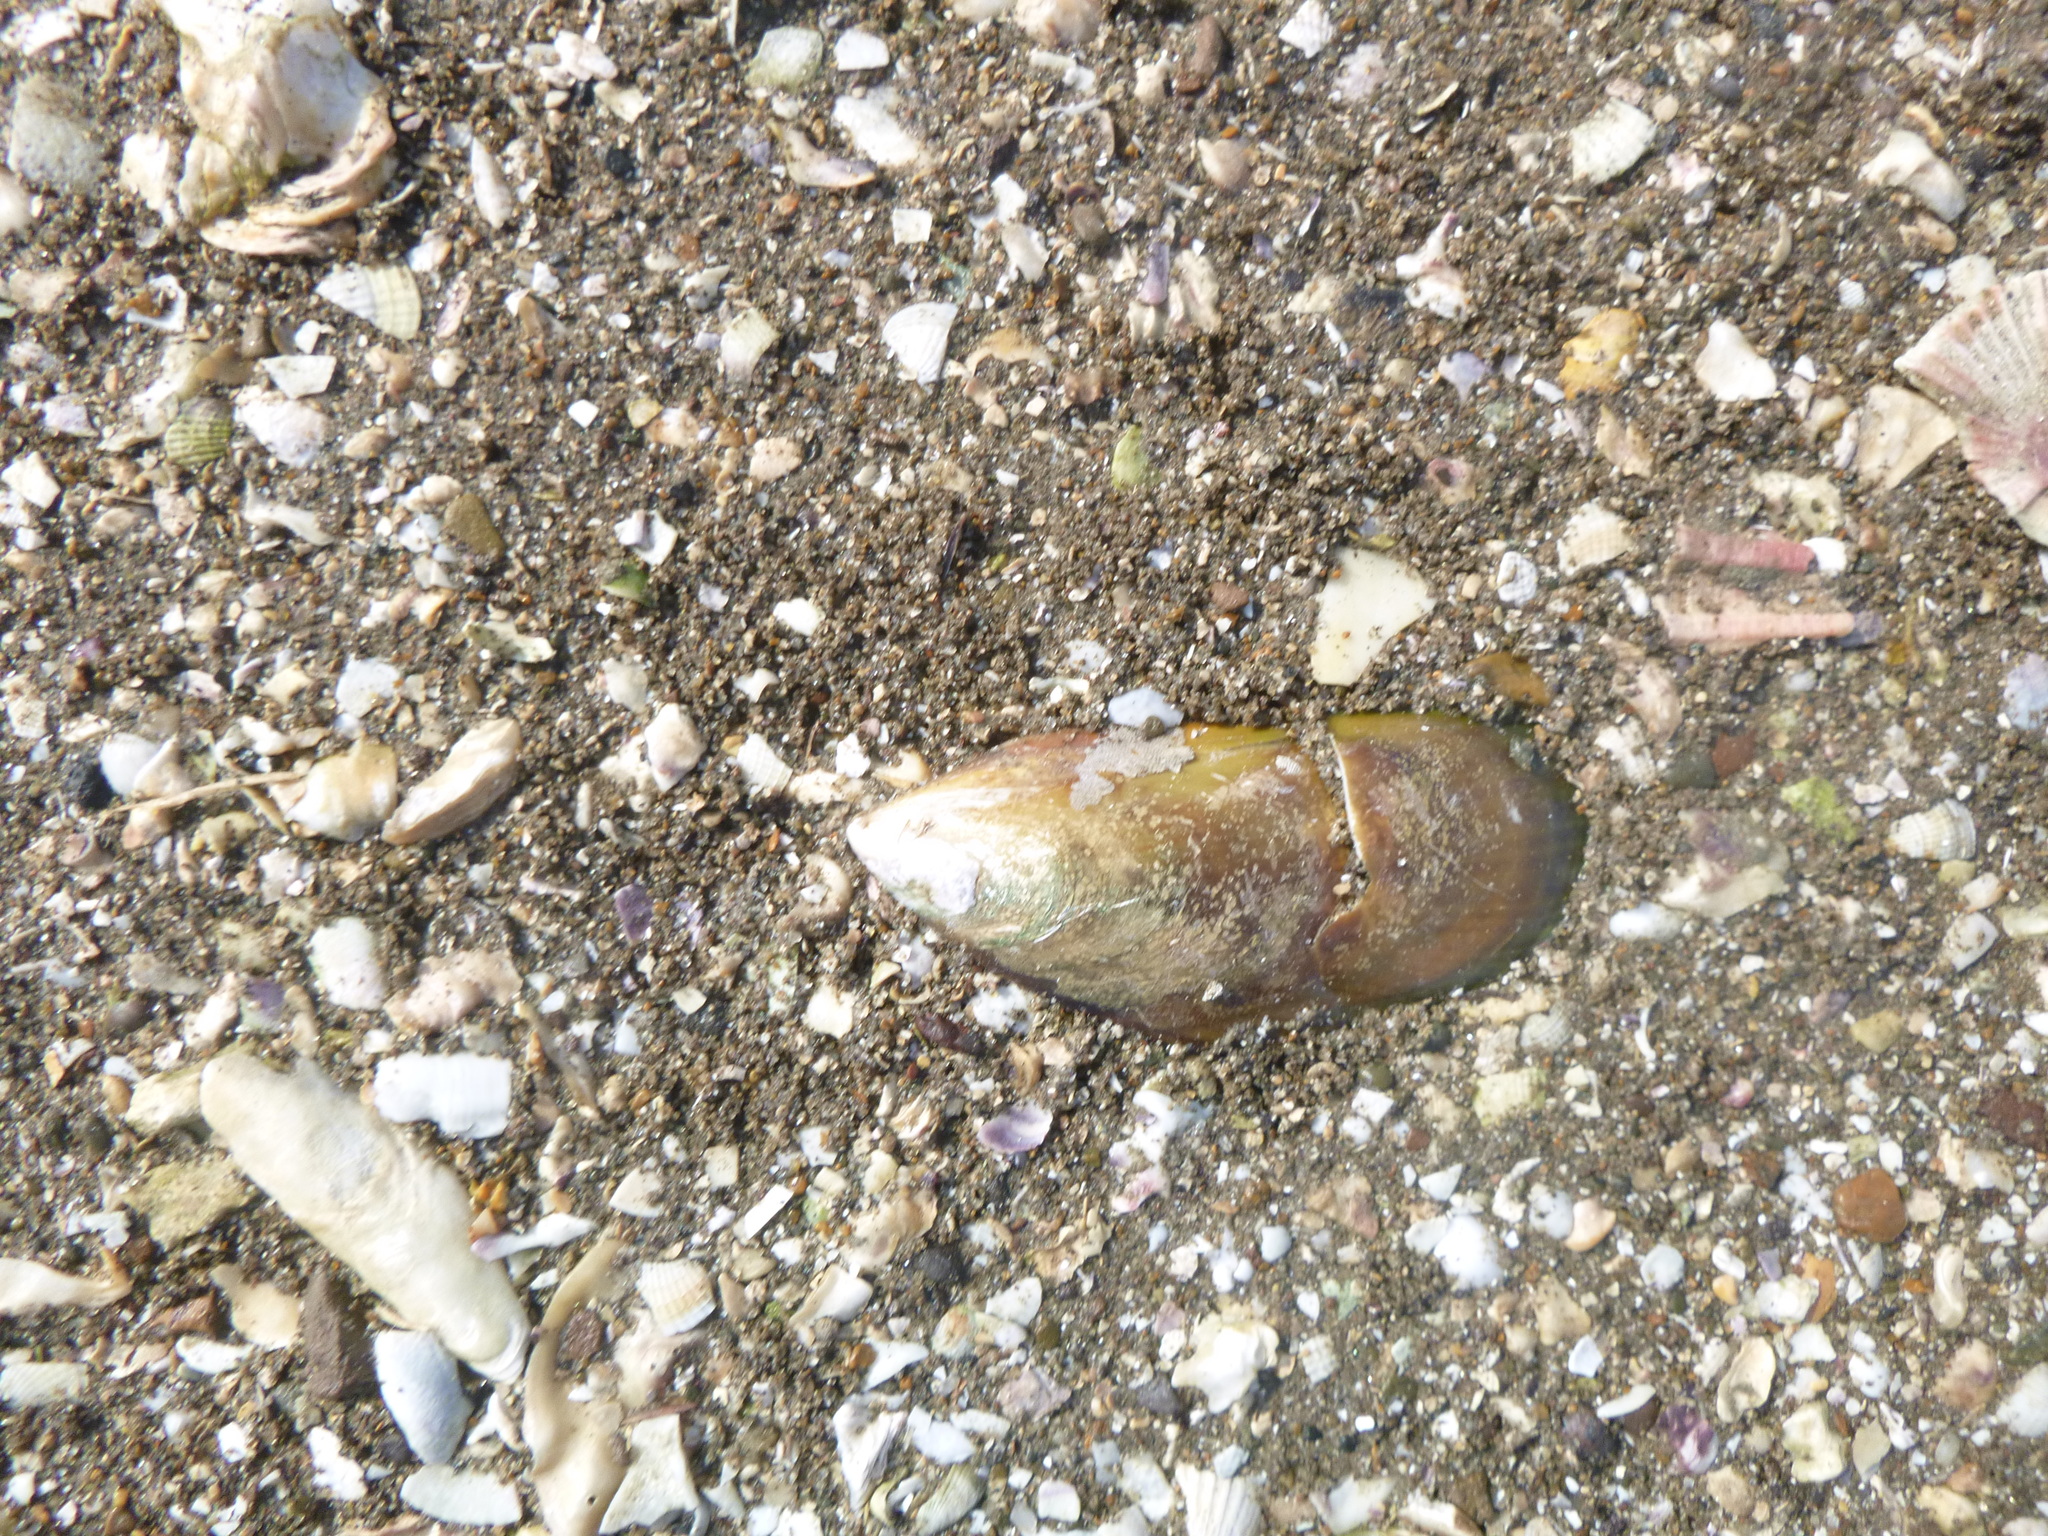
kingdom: Animalia
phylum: Mollusca
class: Bivalvia
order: Mytilida
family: Mytilidae
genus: Perna
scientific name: Perna canaliculus
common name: New zealand greenshelltm
